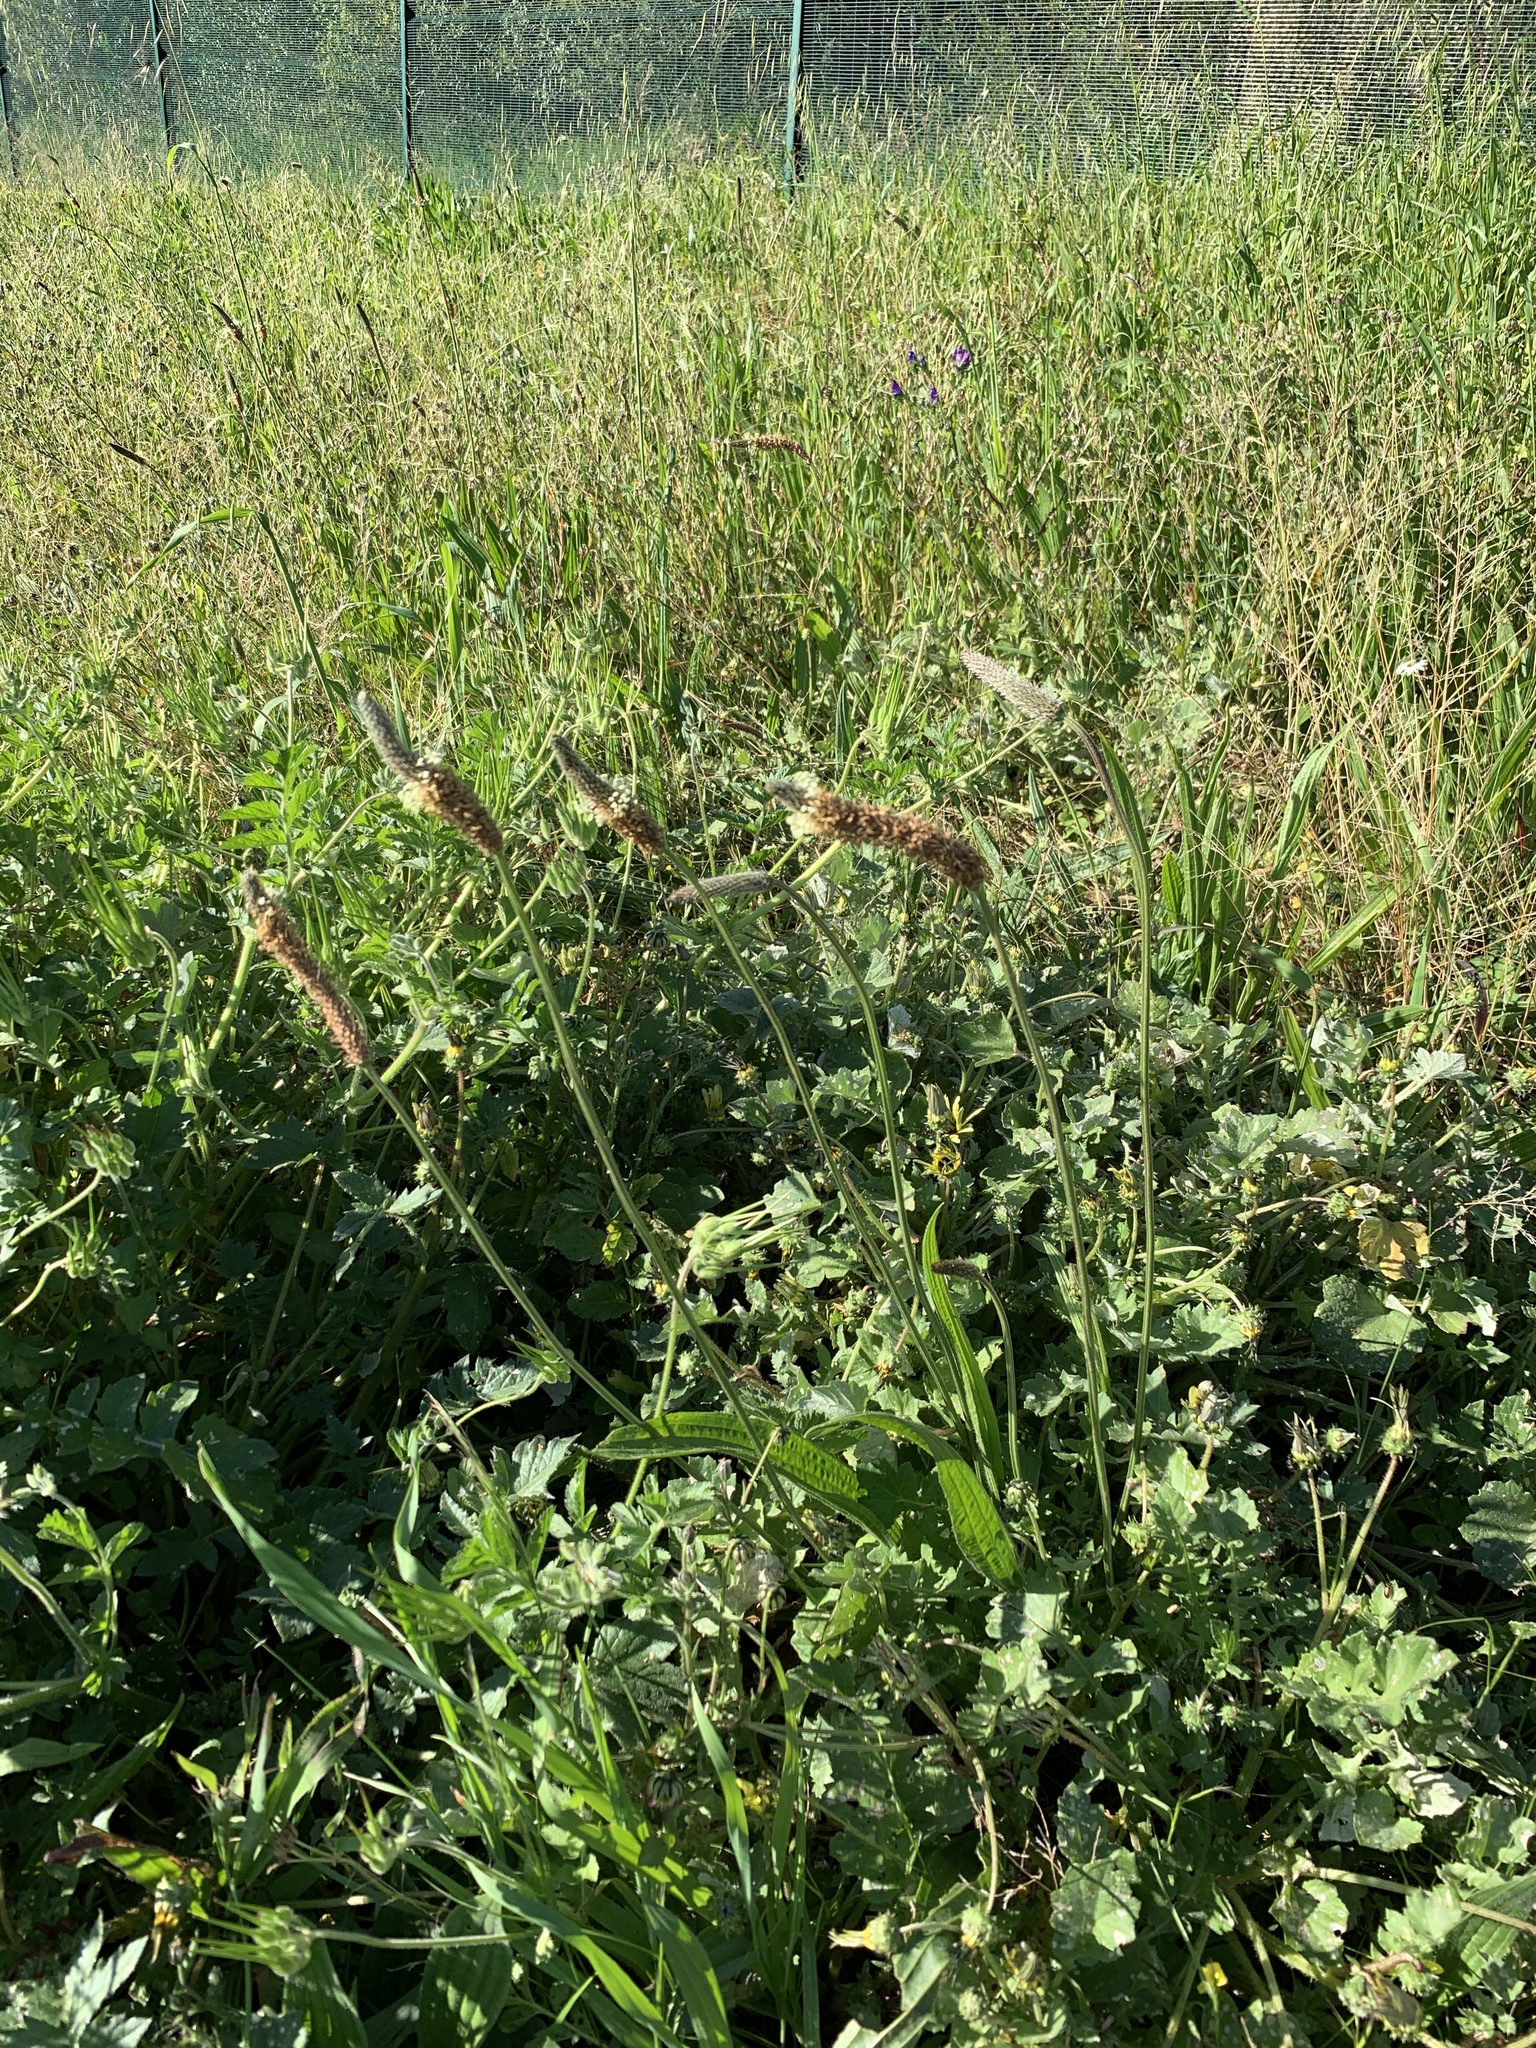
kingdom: Plantae
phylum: Tracheophyta
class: Magnoliopsida
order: Lamiales
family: Plantaginaceae
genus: Plantago
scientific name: Plantago lanceolata
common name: Ribwort plantain
